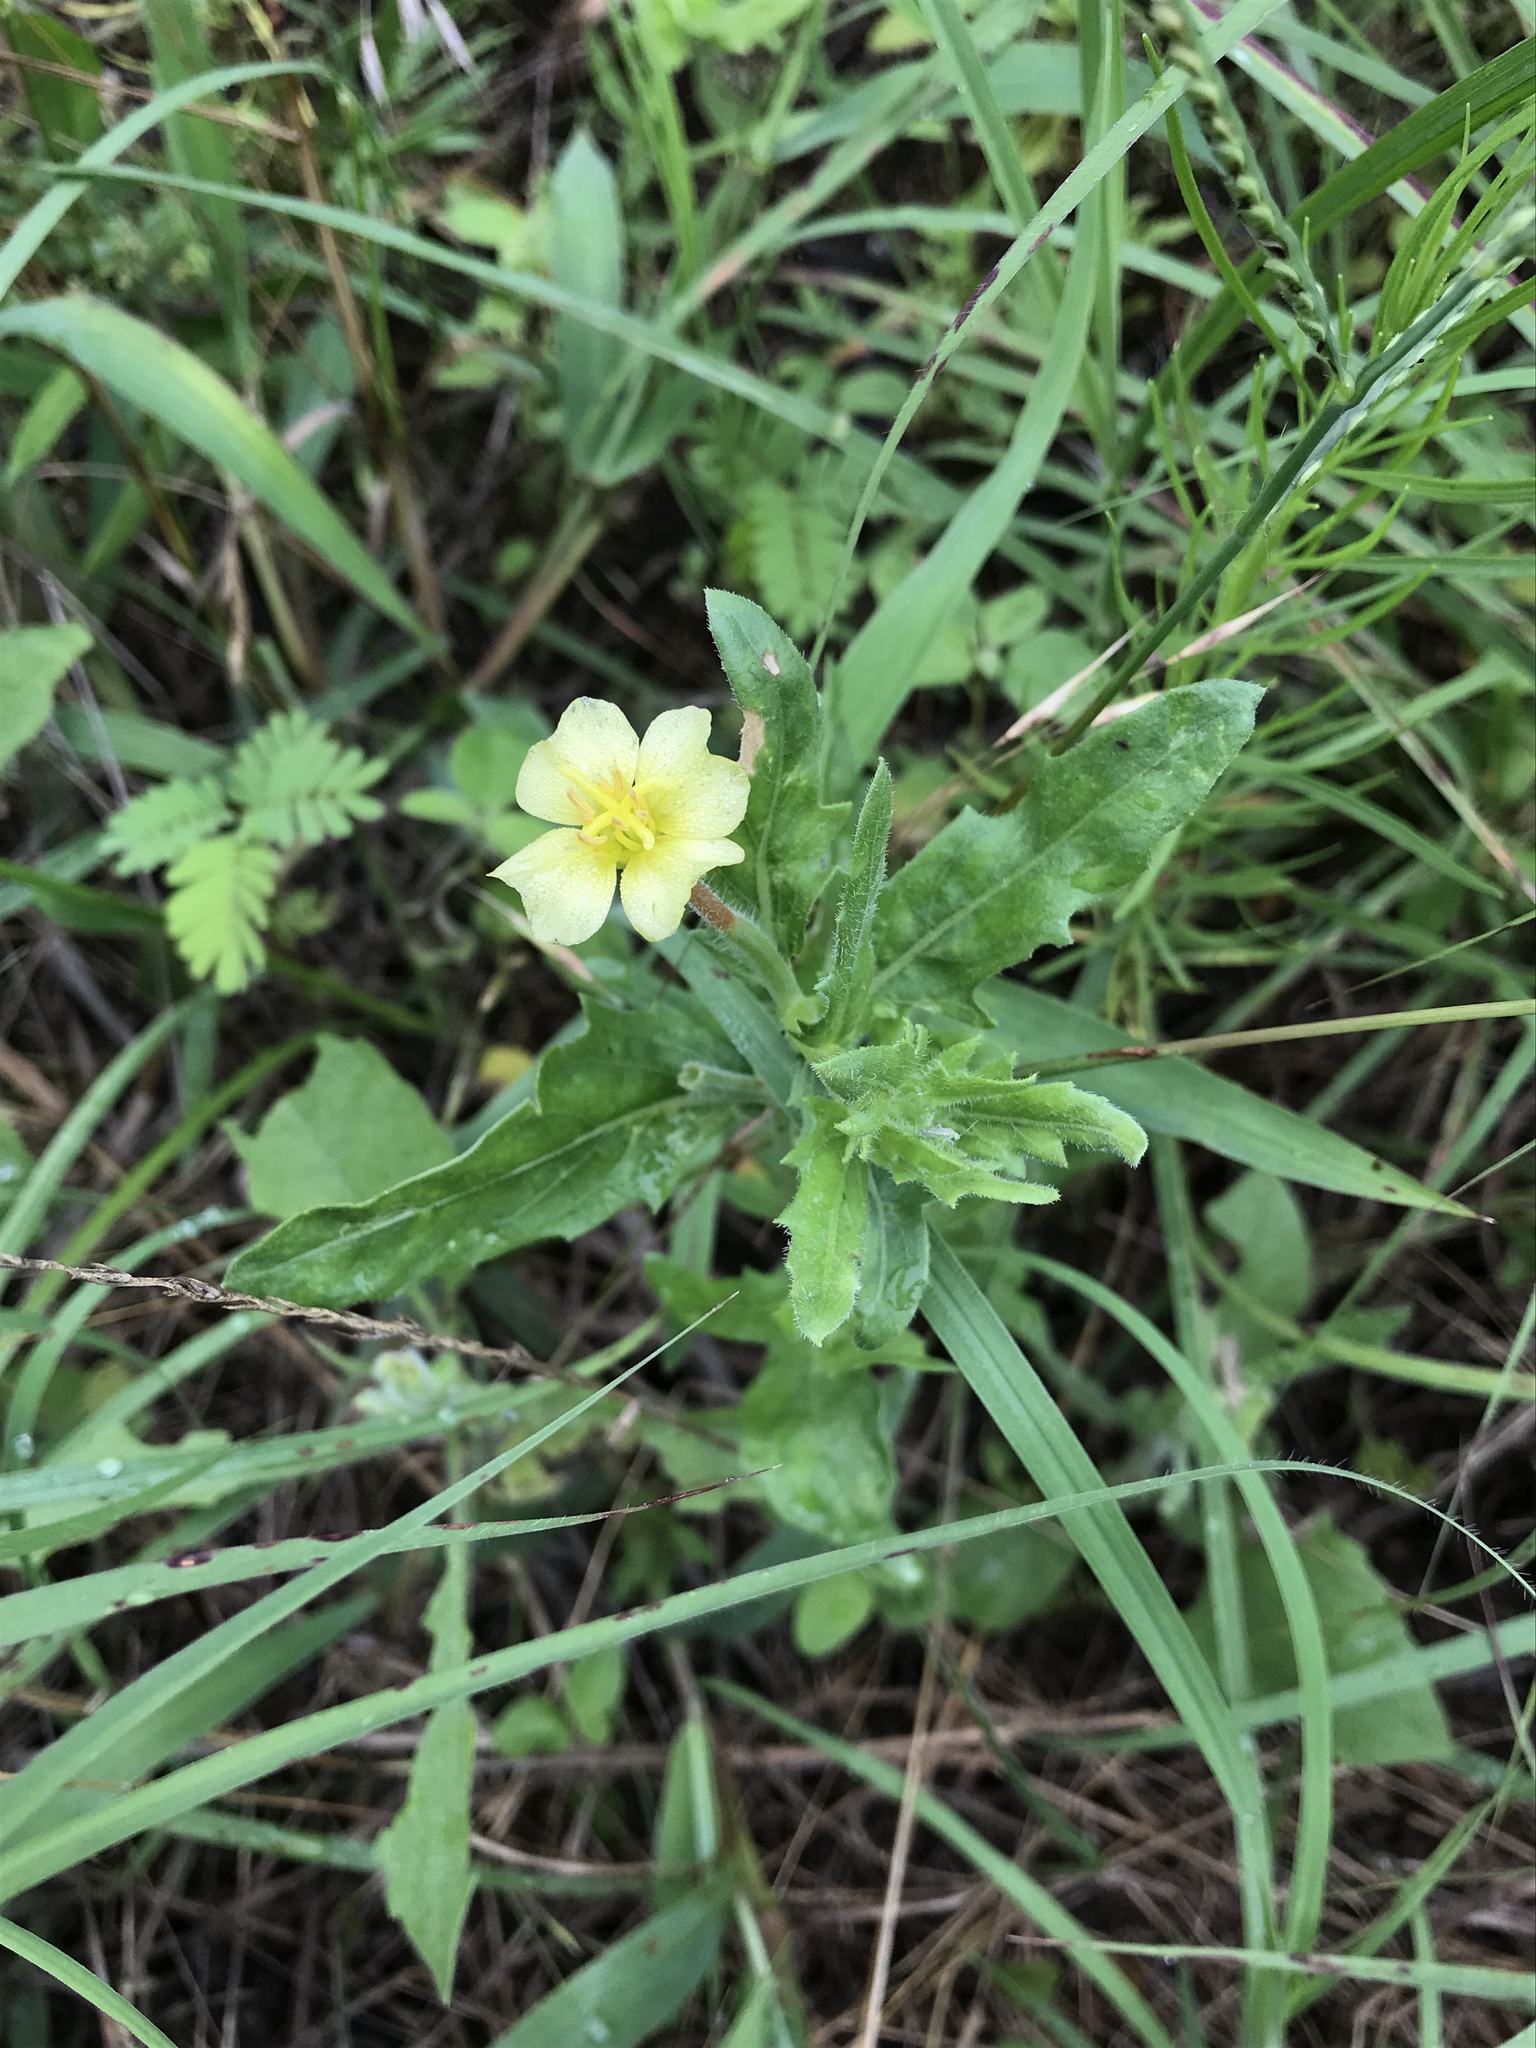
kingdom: Plantae
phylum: Tracheophyta
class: Magnoliopsida
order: Myrtales
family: Onagraceae
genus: Oenothera
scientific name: Oenothera laciniata
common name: Cut-leaved evening-primrose
